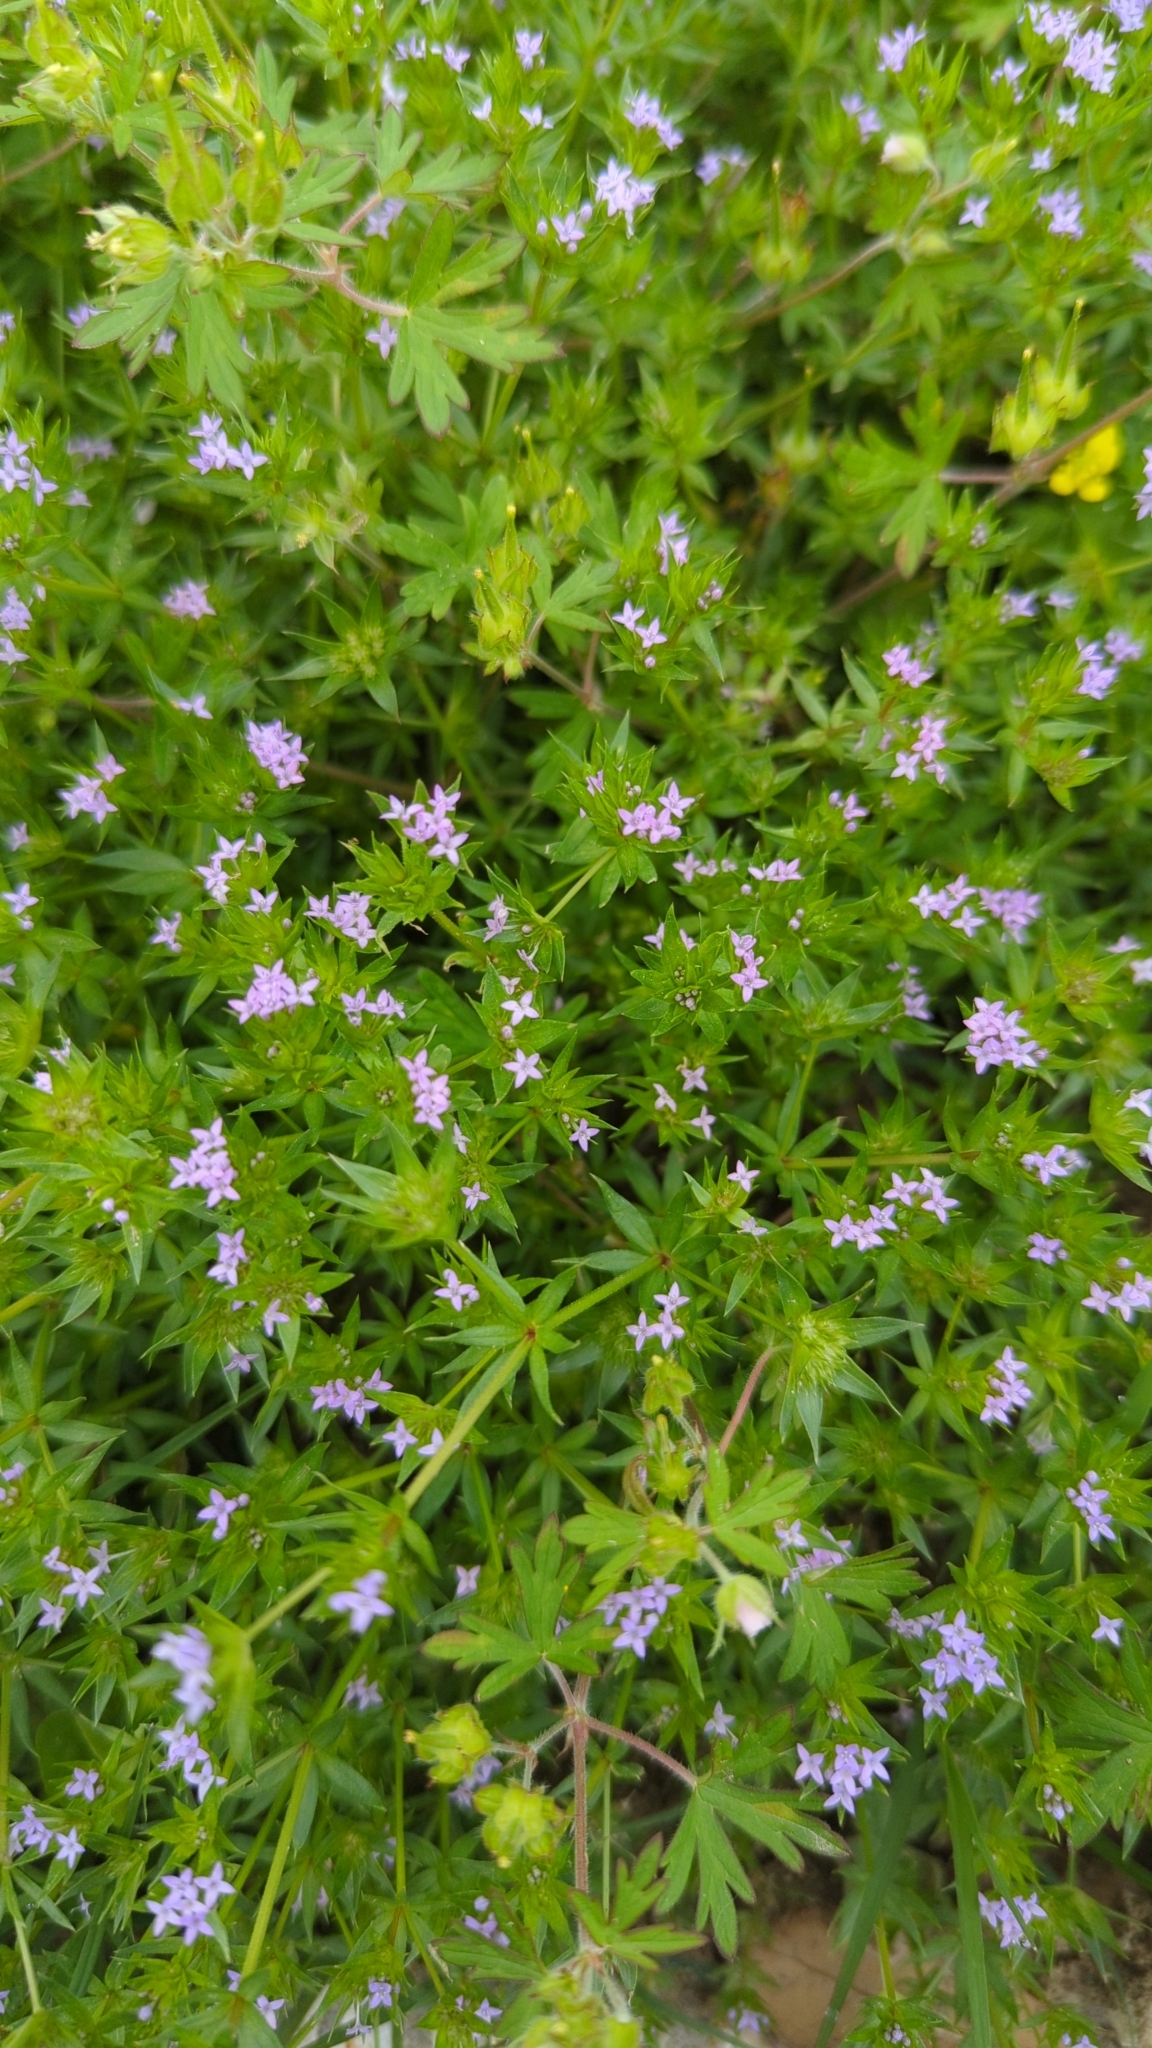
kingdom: Plantae
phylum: Tracheophyta
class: Magnoliopsida
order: Gentianales
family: Rubiaceae
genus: Sherardia
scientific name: Sherardia arvensis
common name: Field madder
